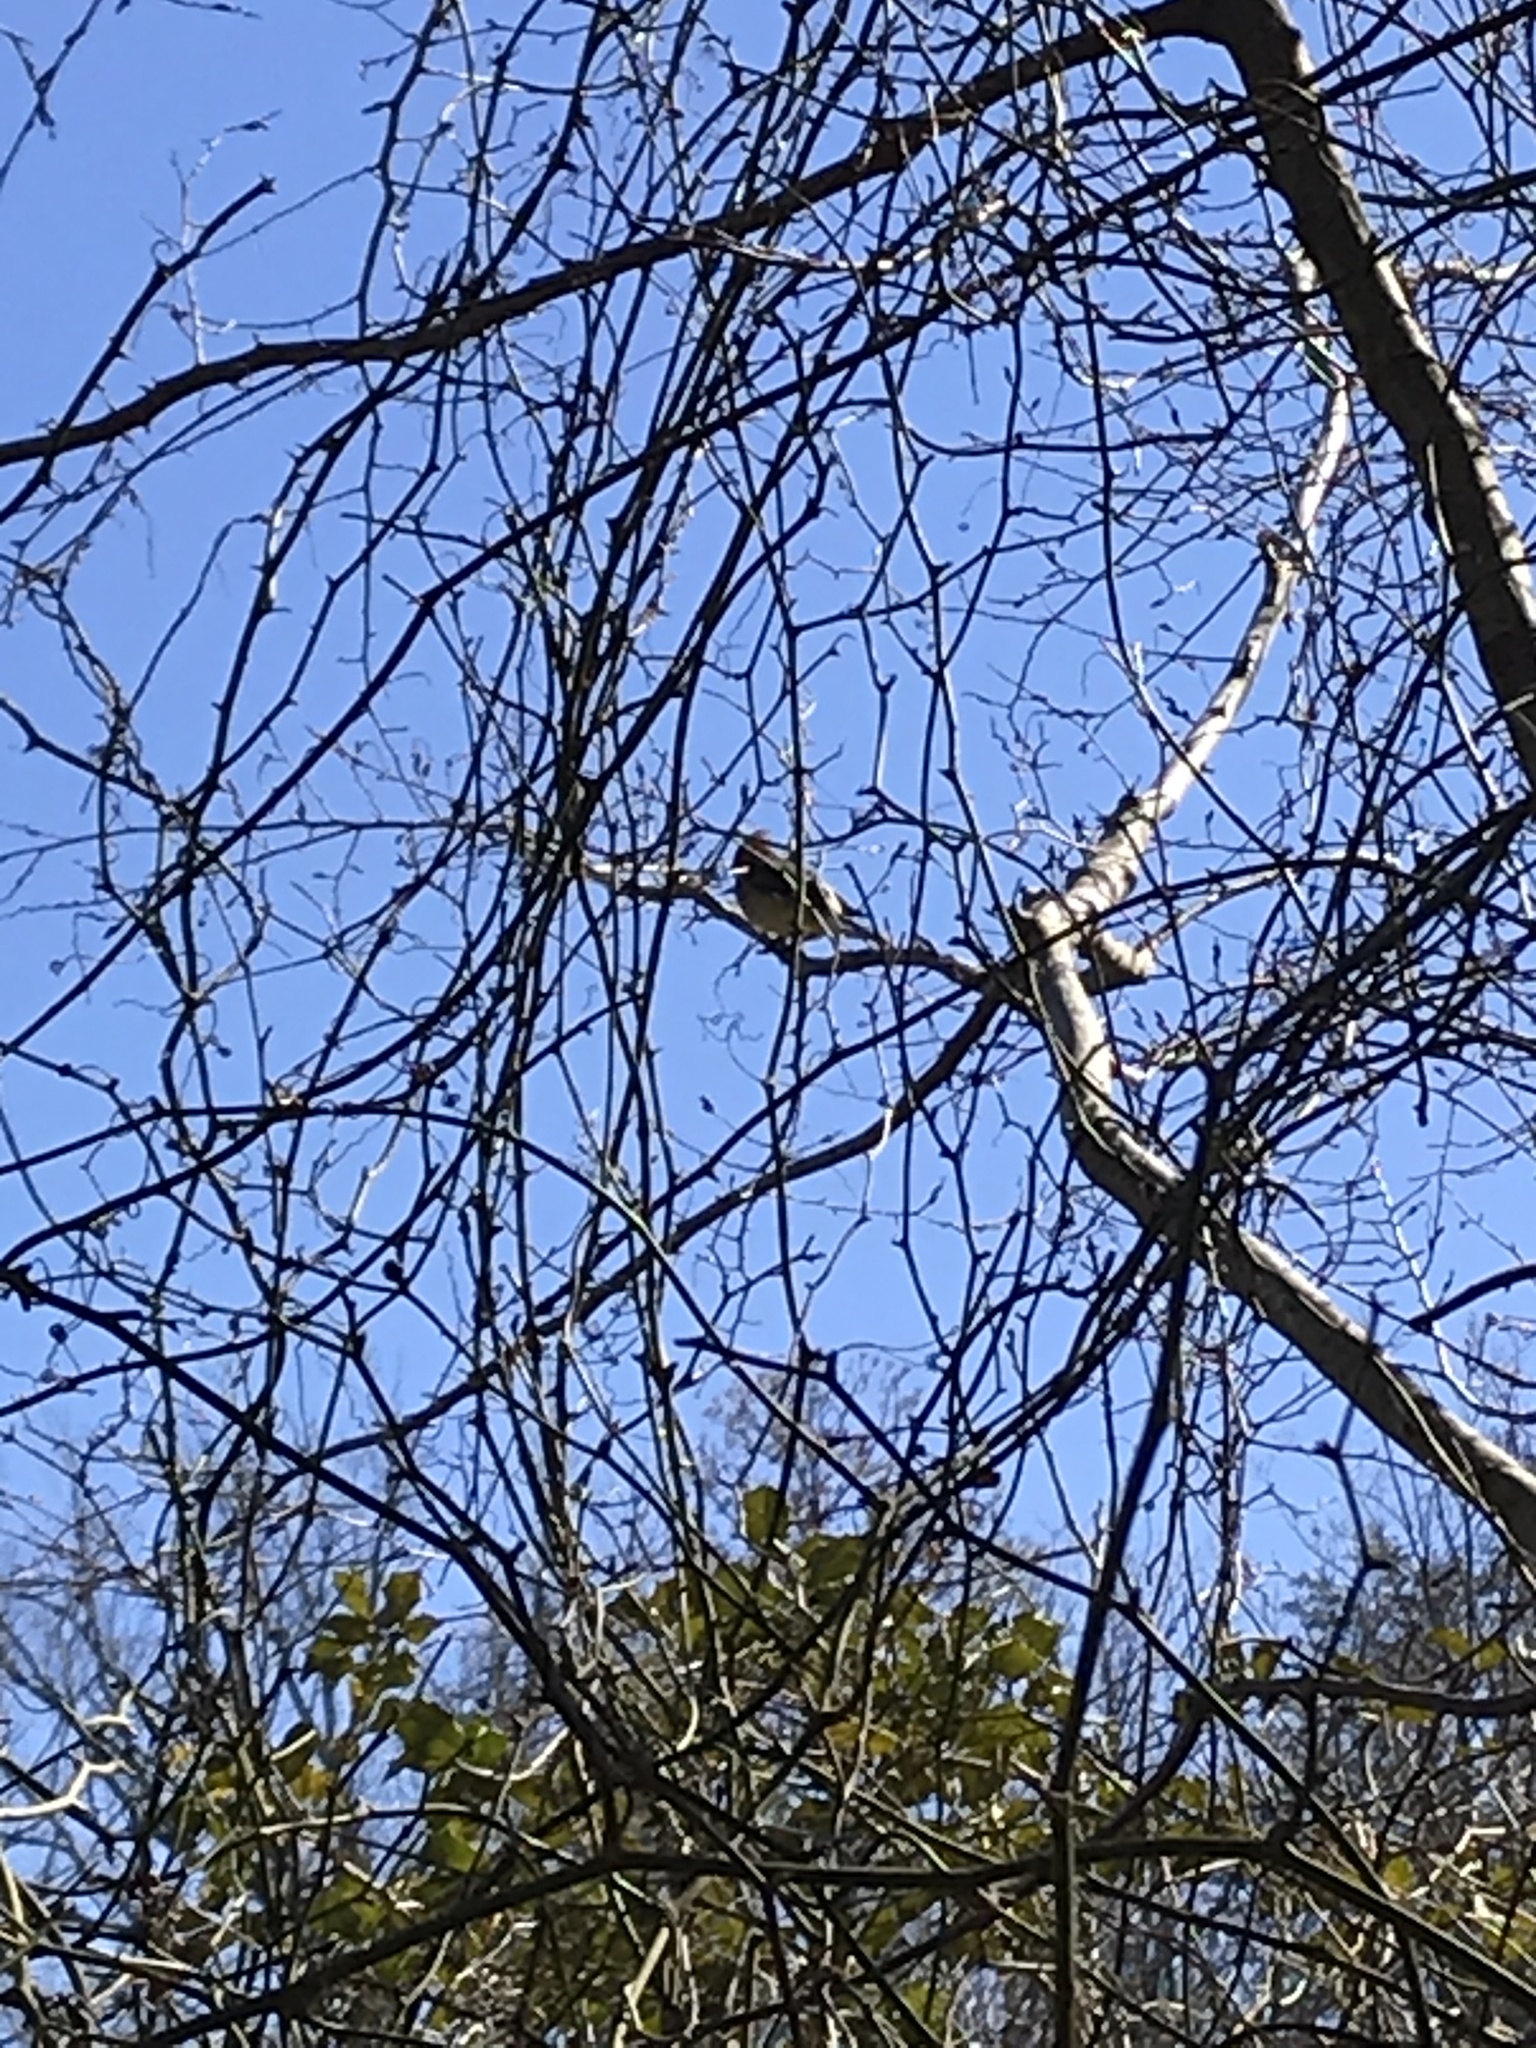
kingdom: Animalia
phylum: Chordata
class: Aves
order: Passeriformes
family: Bombycillidae
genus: Bombycilla
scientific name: Bombycilla cedrorum
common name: Cedar waxwing
